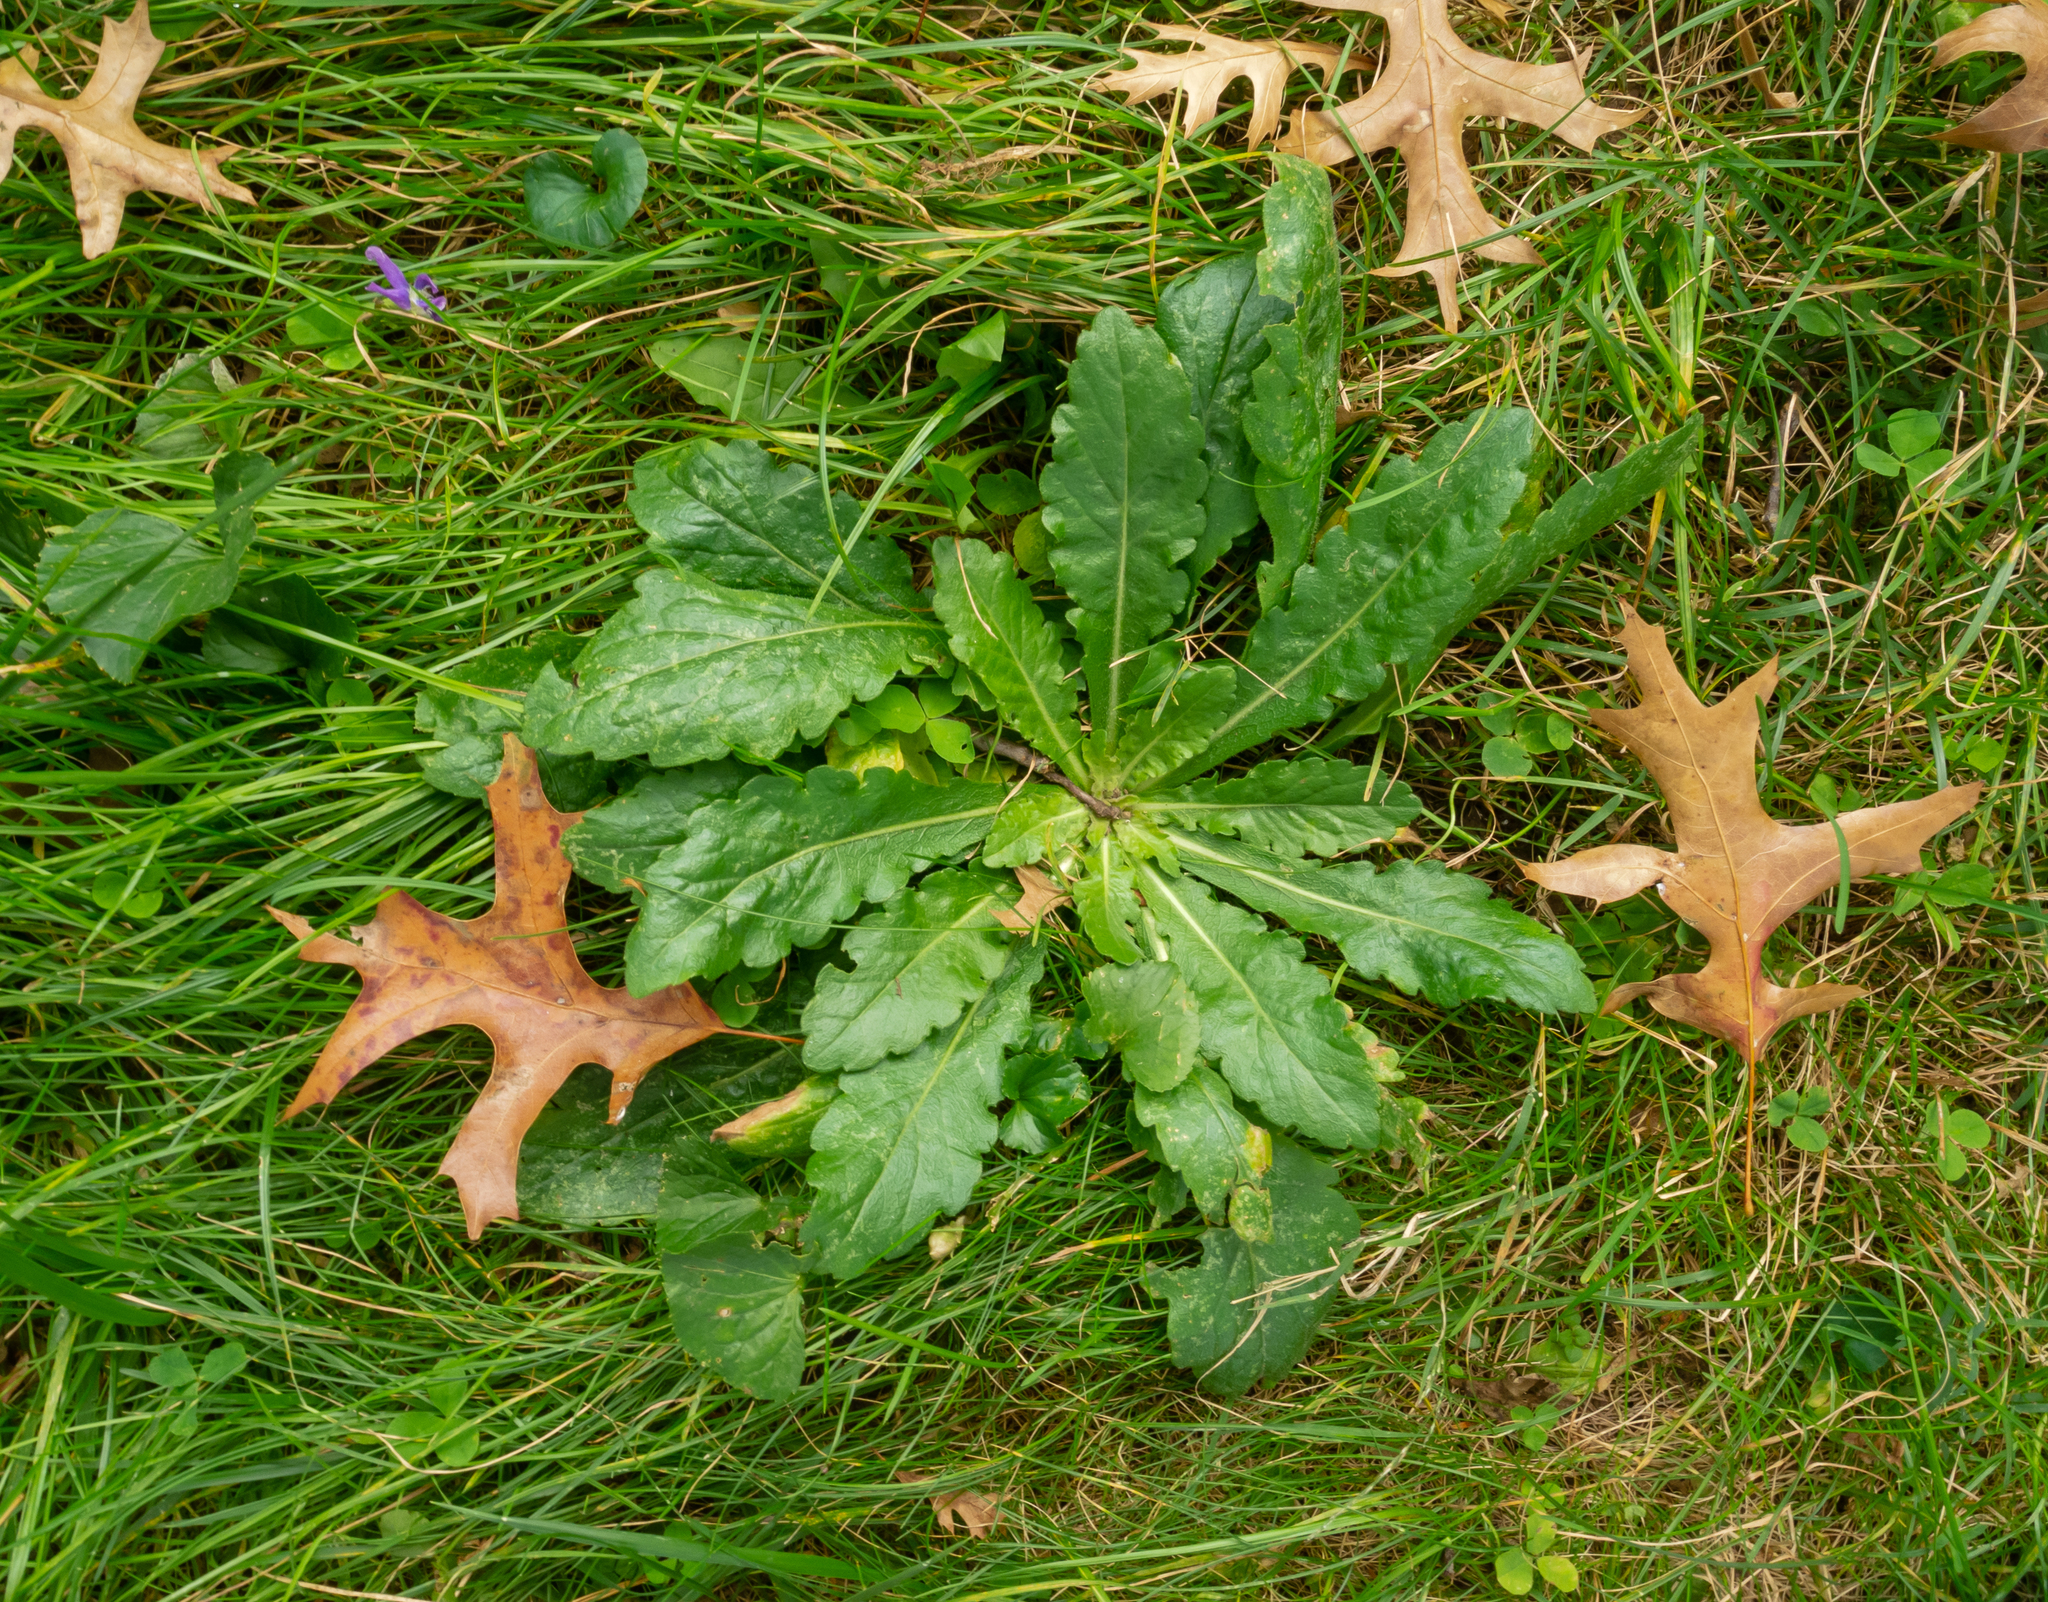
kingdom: Plantae
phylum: Tracheophyta
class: Magnoliopsida
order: Asterales
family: Asteraceae
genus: Erigeron
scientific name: Erigeron philadelphicus
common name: Robin's-plantain
